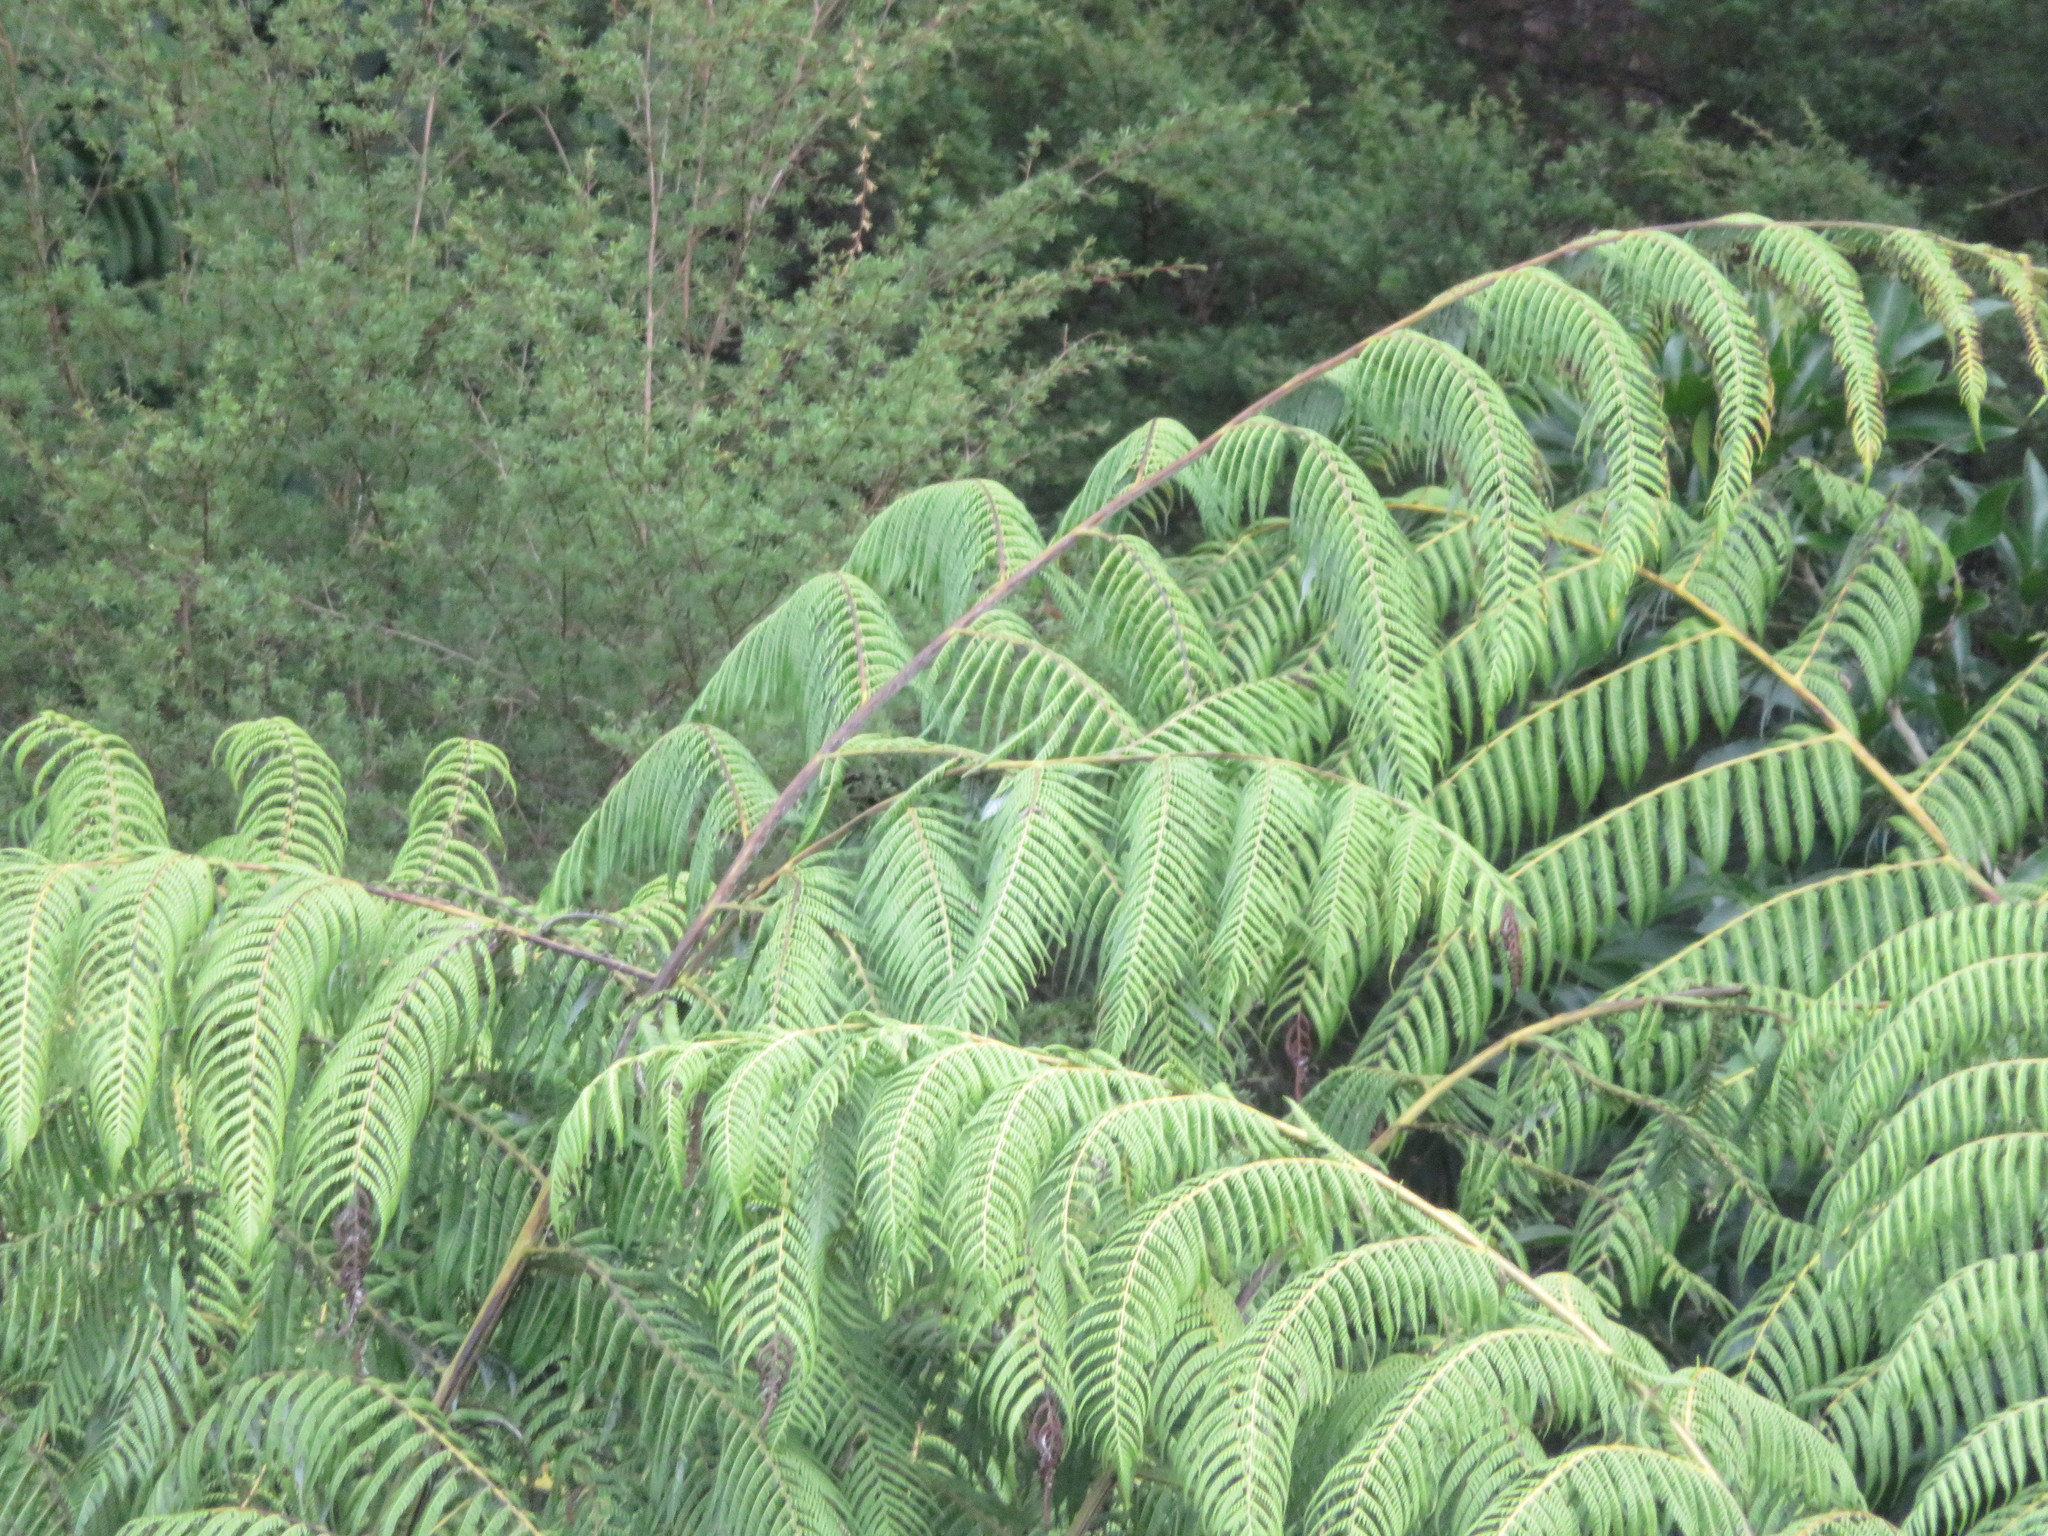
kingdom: Plantae
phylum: Tracheophyta
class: Polypodiopsida
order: Cyatheales
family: Cyatheaceae
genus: Sphaeropteris
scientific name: Sphaeropteris medullaris
